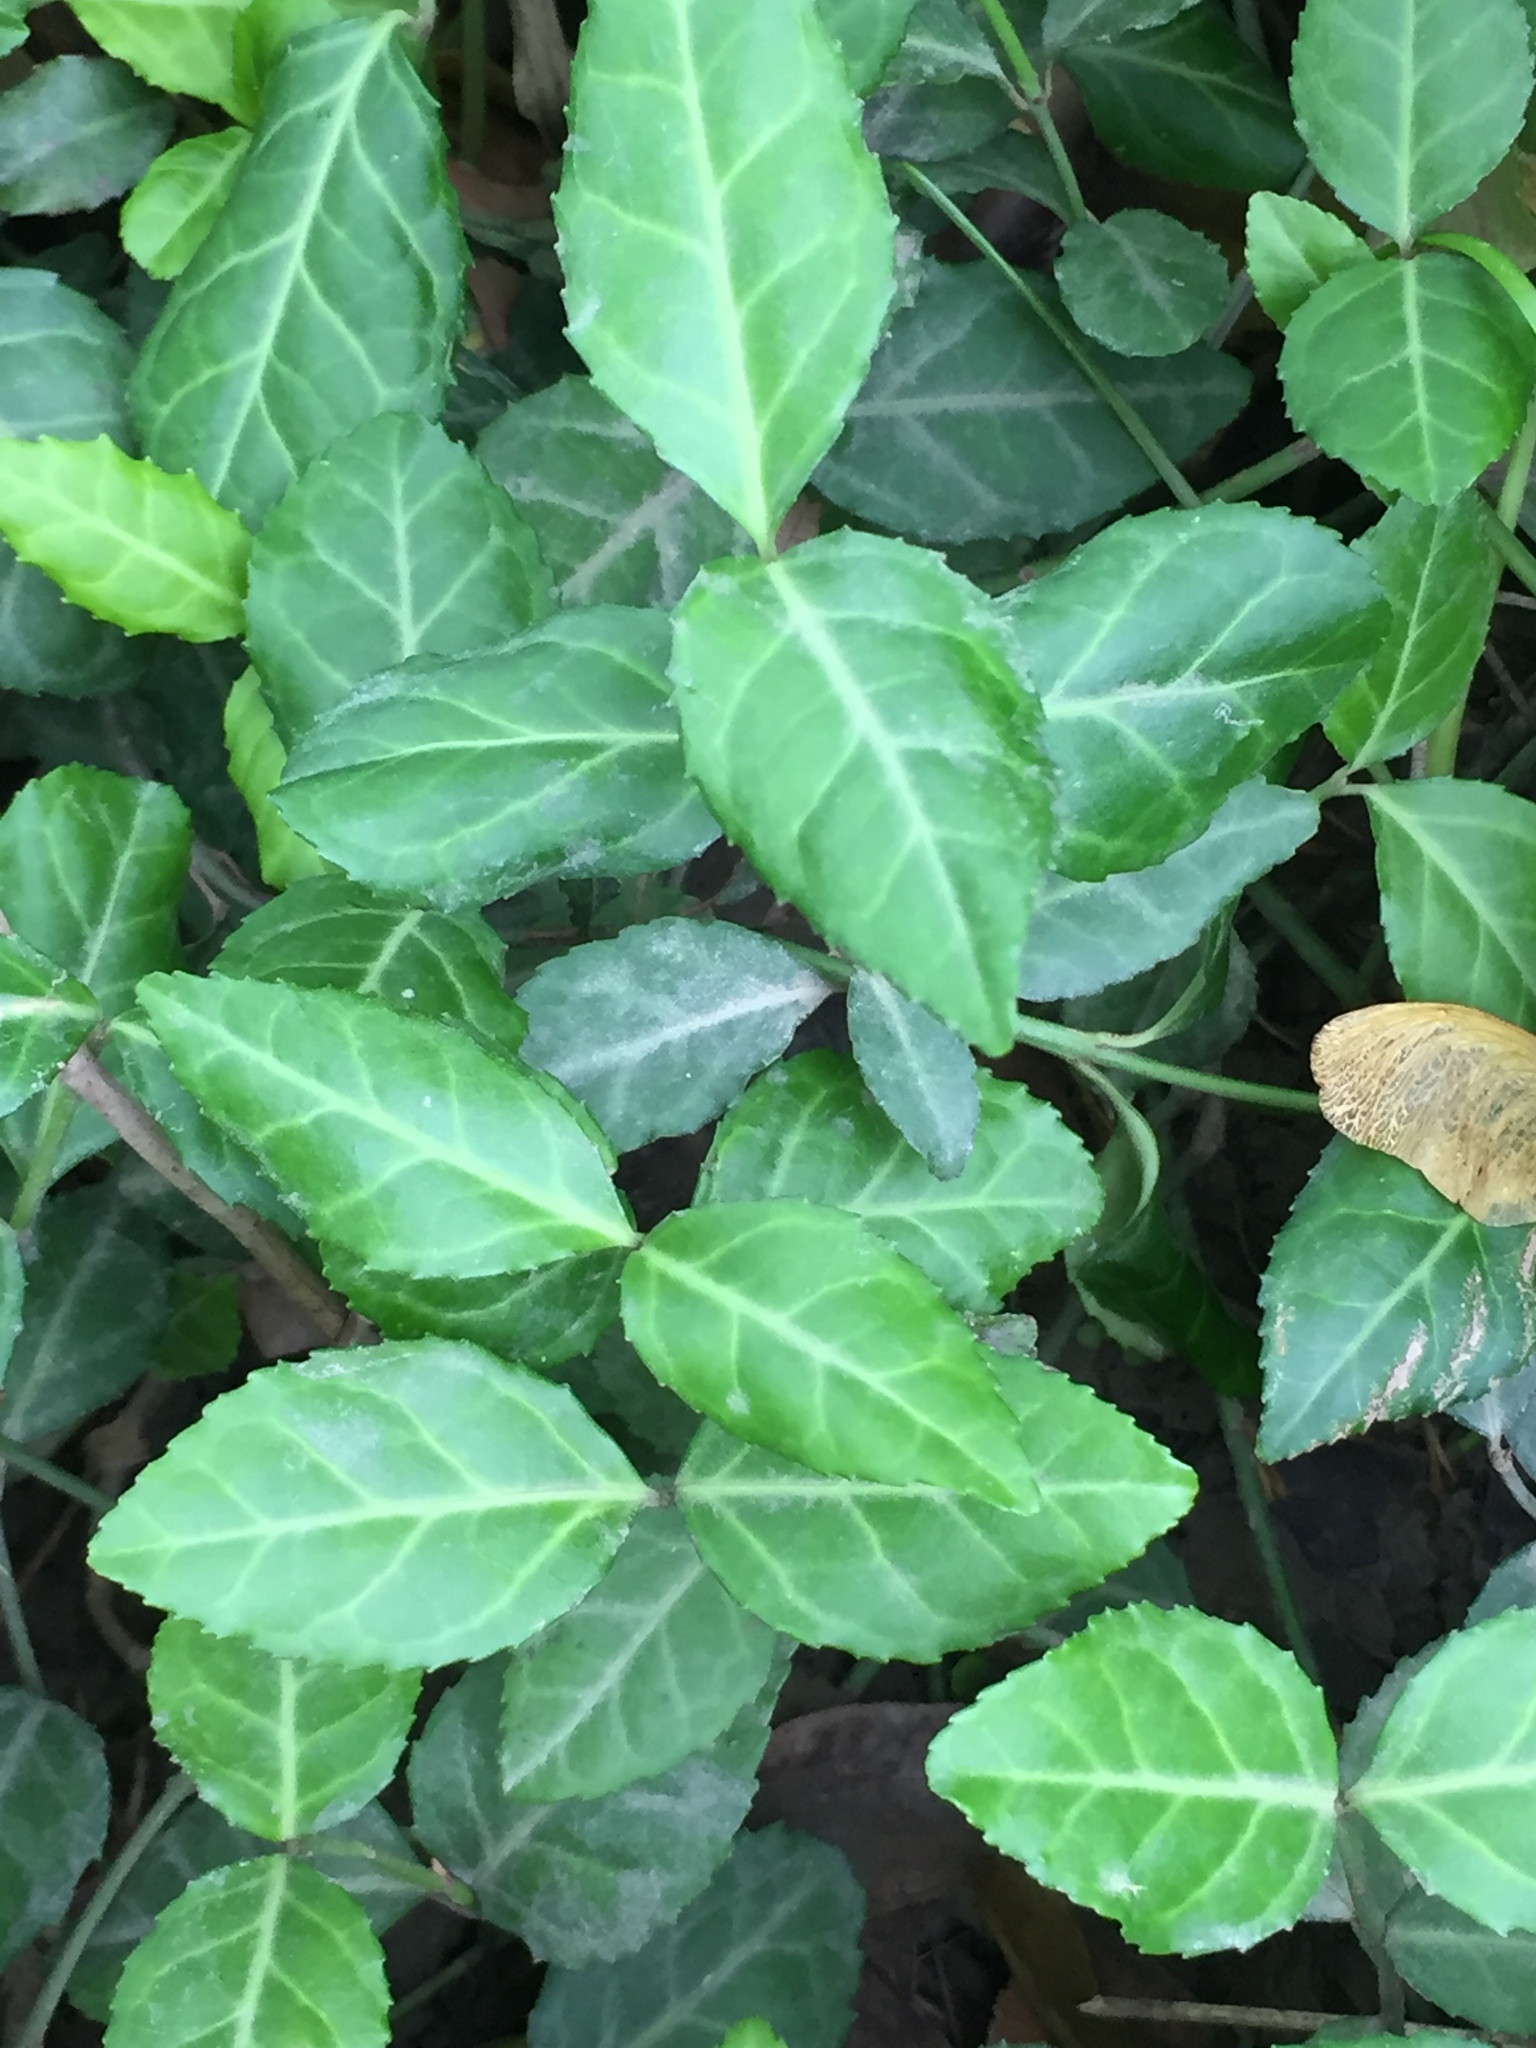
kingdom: Plantae
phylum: Tracheophyta
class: Magnoliopsida
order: Celastrales
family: Celastraceae
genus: Euonymus
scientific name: Euonymus fortunei
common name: Climbing euonymus
